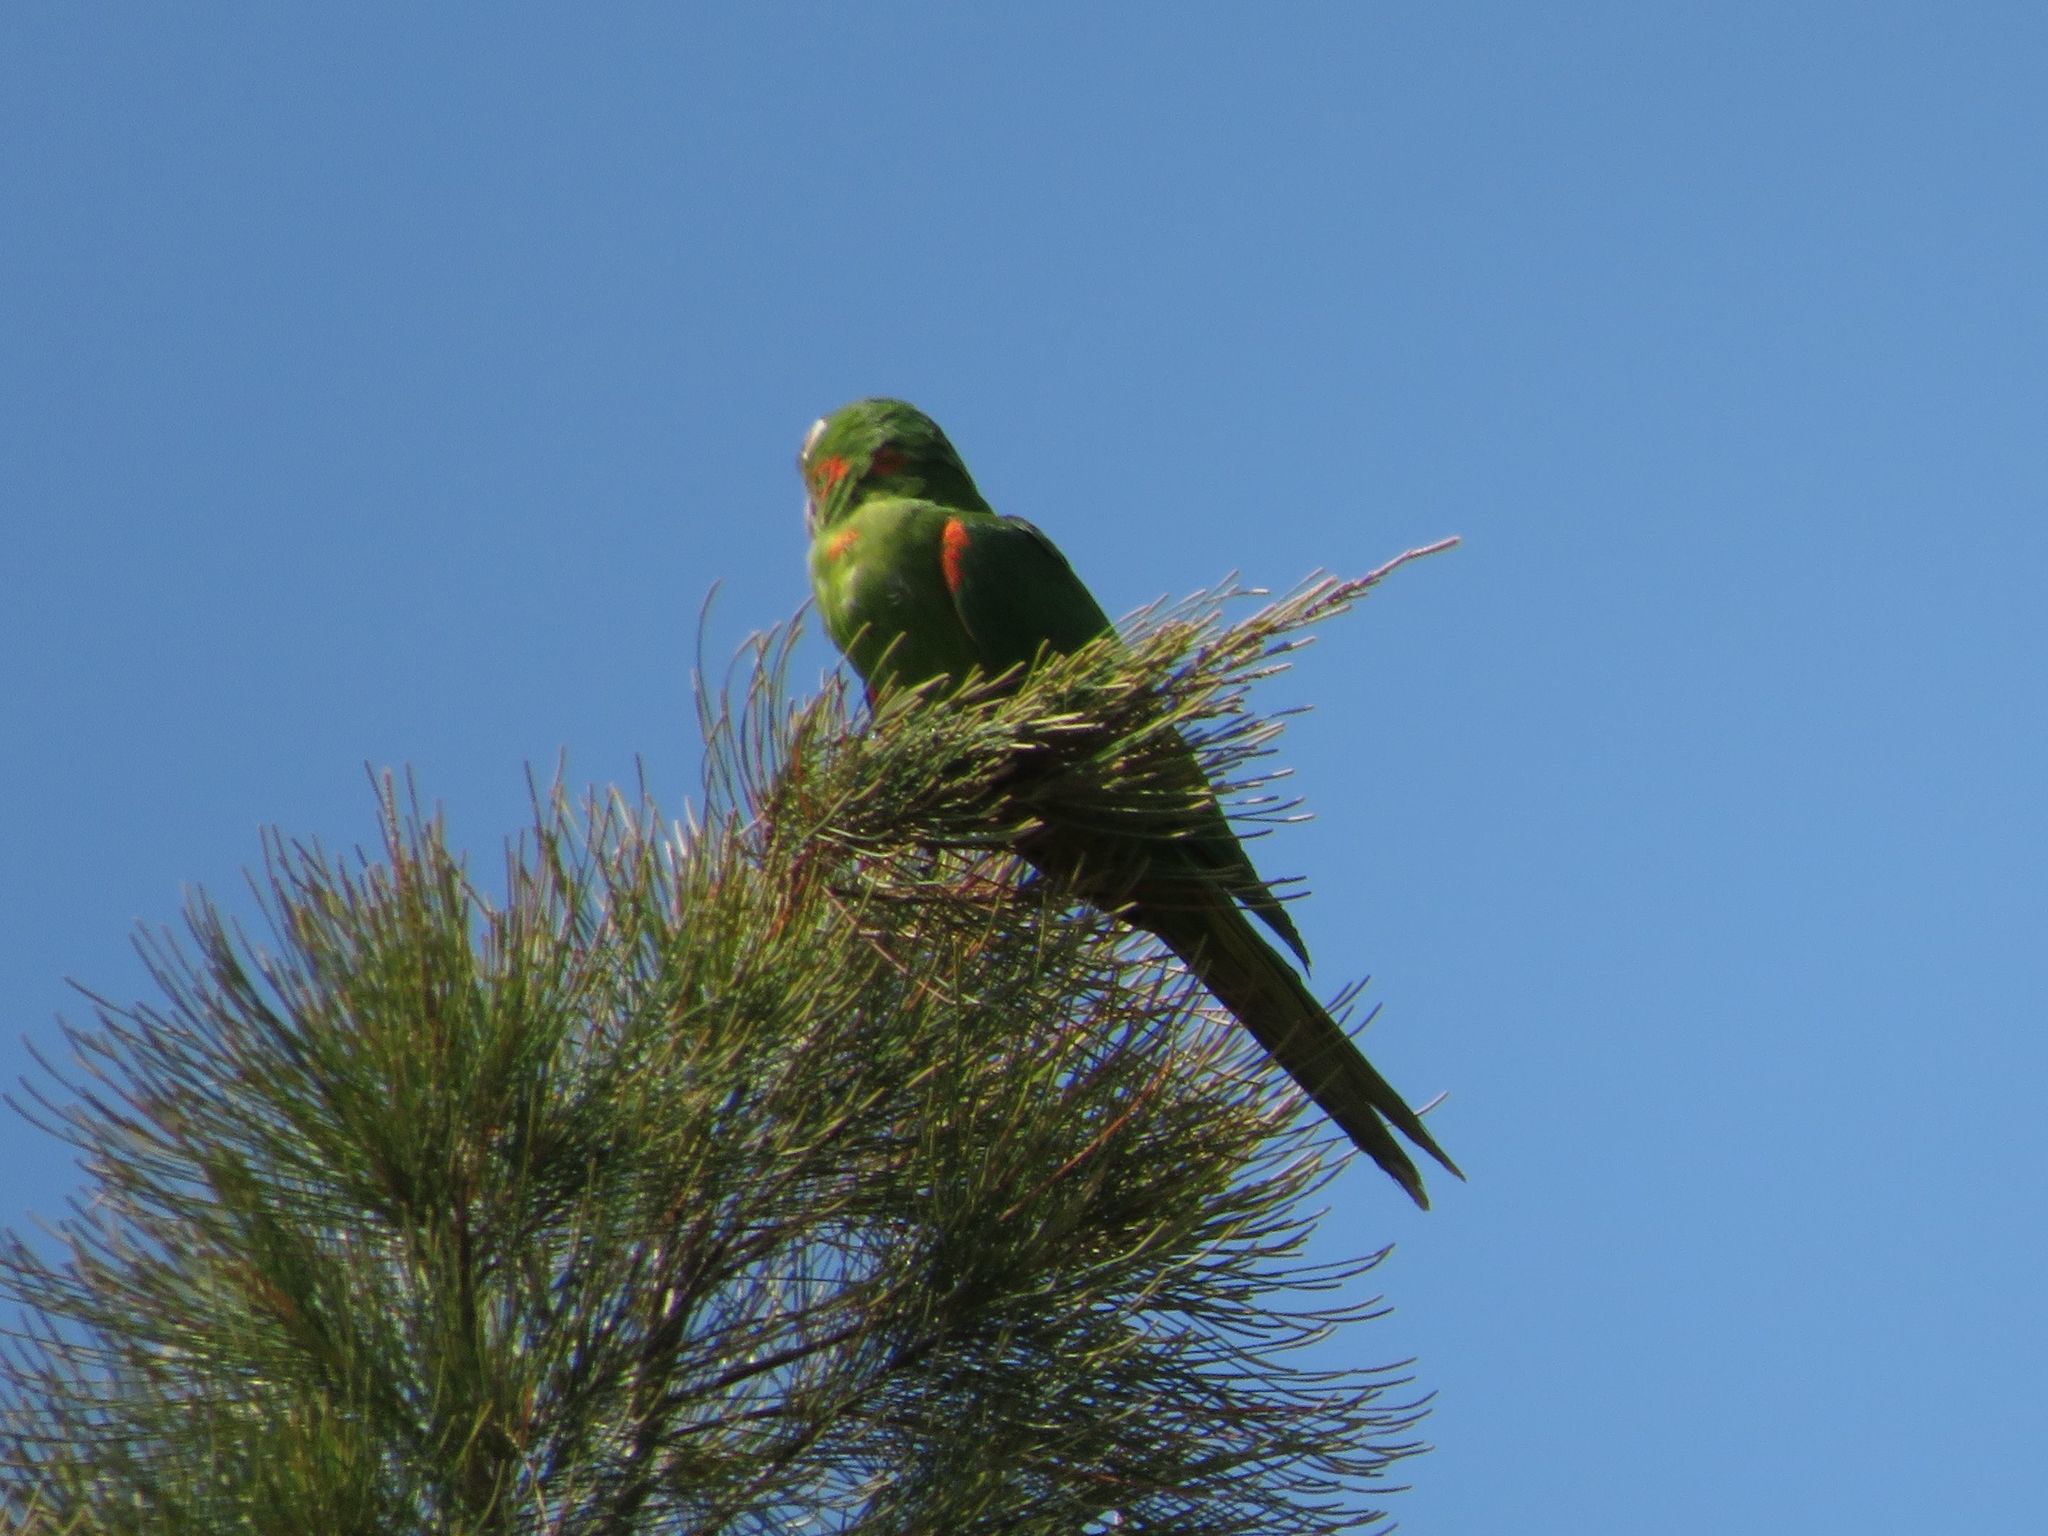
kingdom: Animalia
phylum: Chordata
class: Aves
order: Psittaciformes
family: Psittacidae
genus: Aratinga
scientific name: Aratinga leucophthalma
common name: White-eyed parakeet
